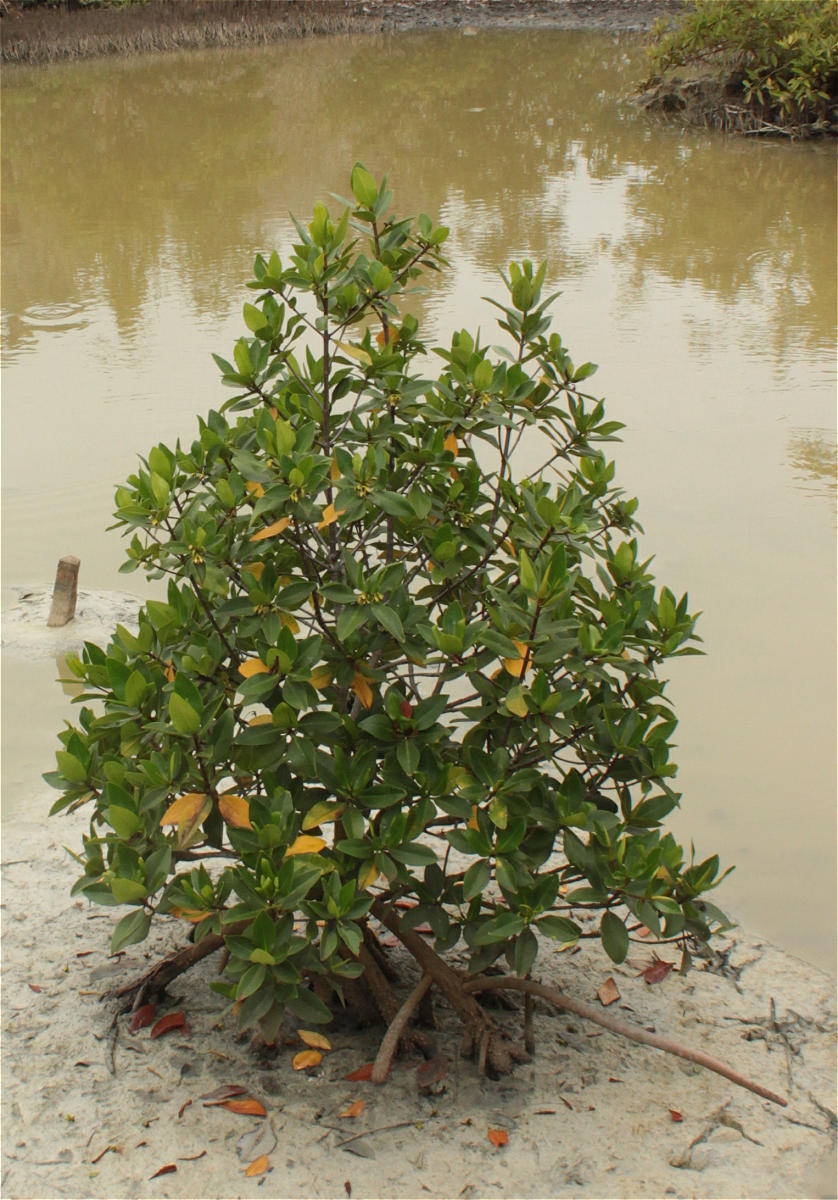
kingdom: Plantae
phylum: Tracheophyta
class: Magnoliopsida
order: Malpighiales
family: Rhizophoraceae
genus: Rhizophora
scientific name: Rhizophora mangle
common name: Red mangrove
